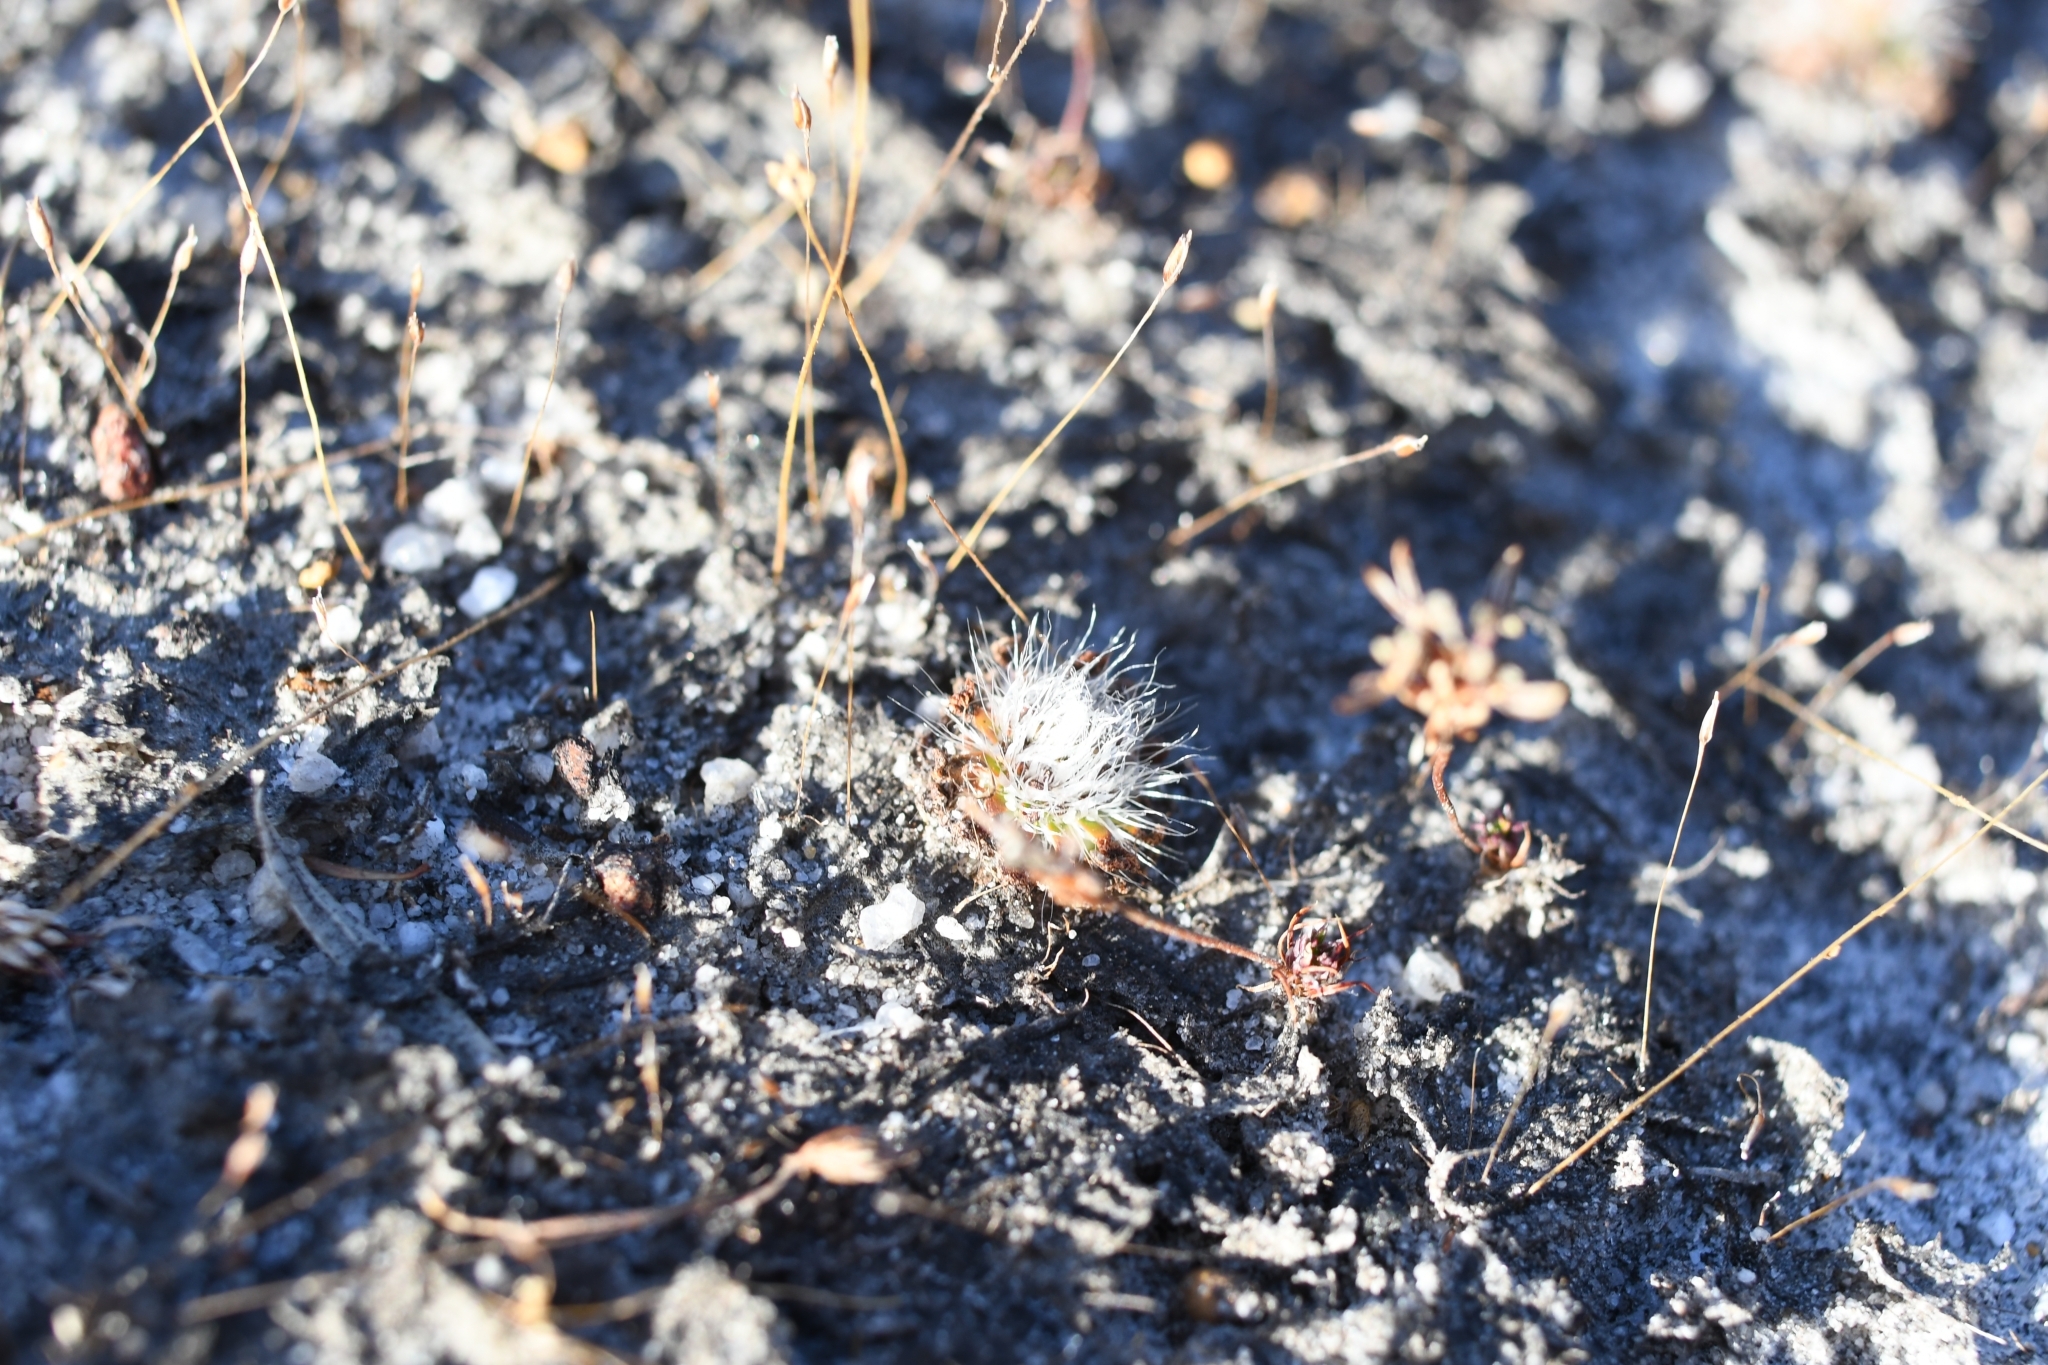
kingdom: Plantae
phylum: Tracheophyta
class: Magnoliopsida
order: Caryophyllales
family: Droseraceae
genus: Drosera
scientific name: Drosera pulchella
